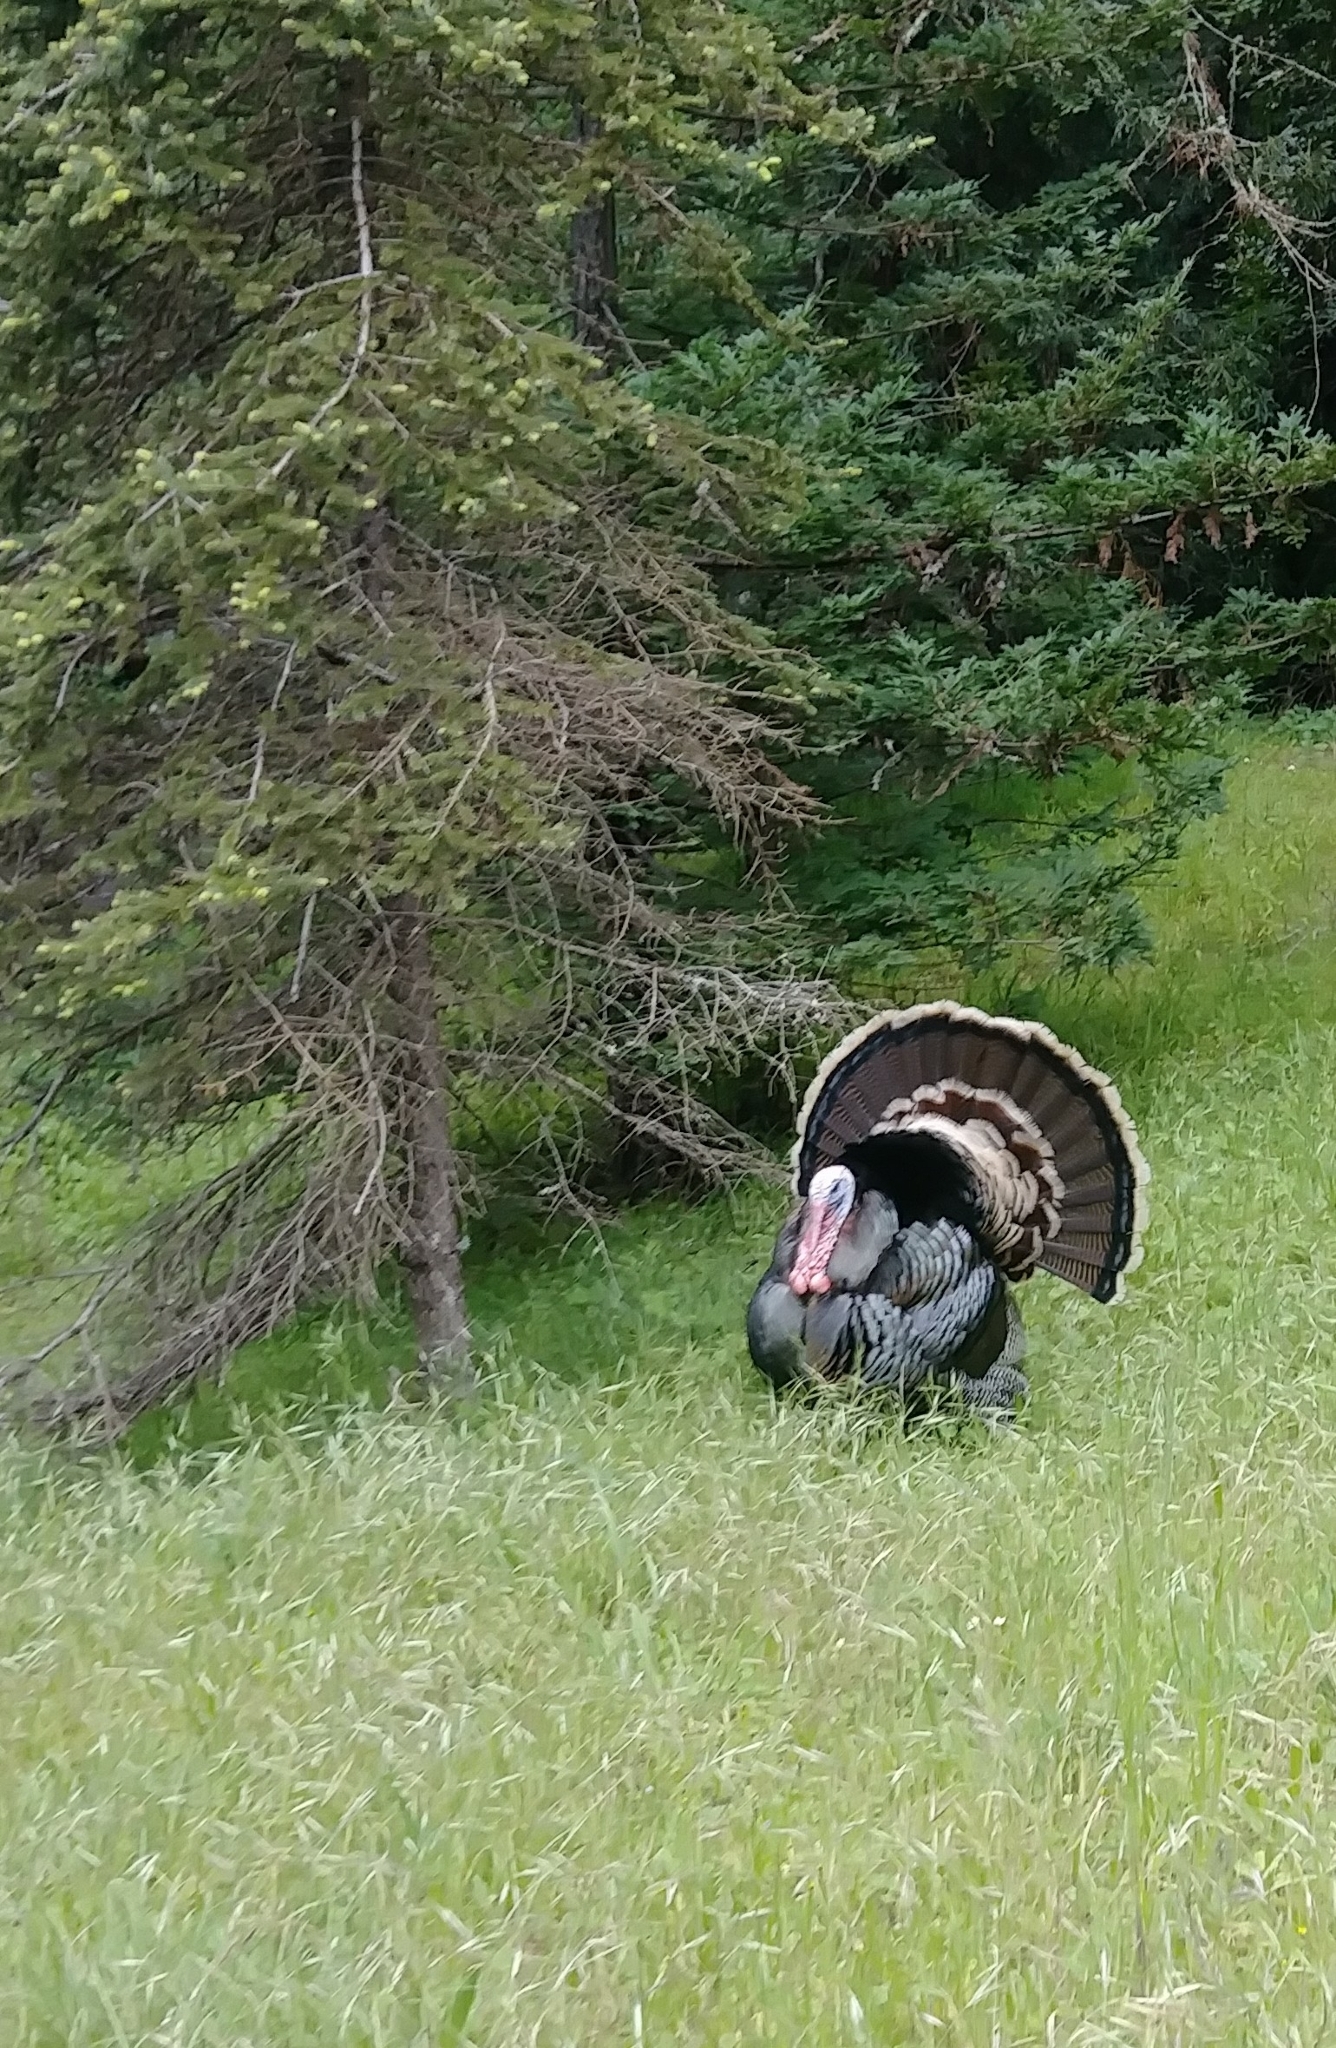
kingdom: Animalia
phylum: Chordata
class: Aves
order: Galliformes
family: Phasianidae
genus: Meleagris
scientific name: Meleagris gallopavo
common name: Wild turkey
